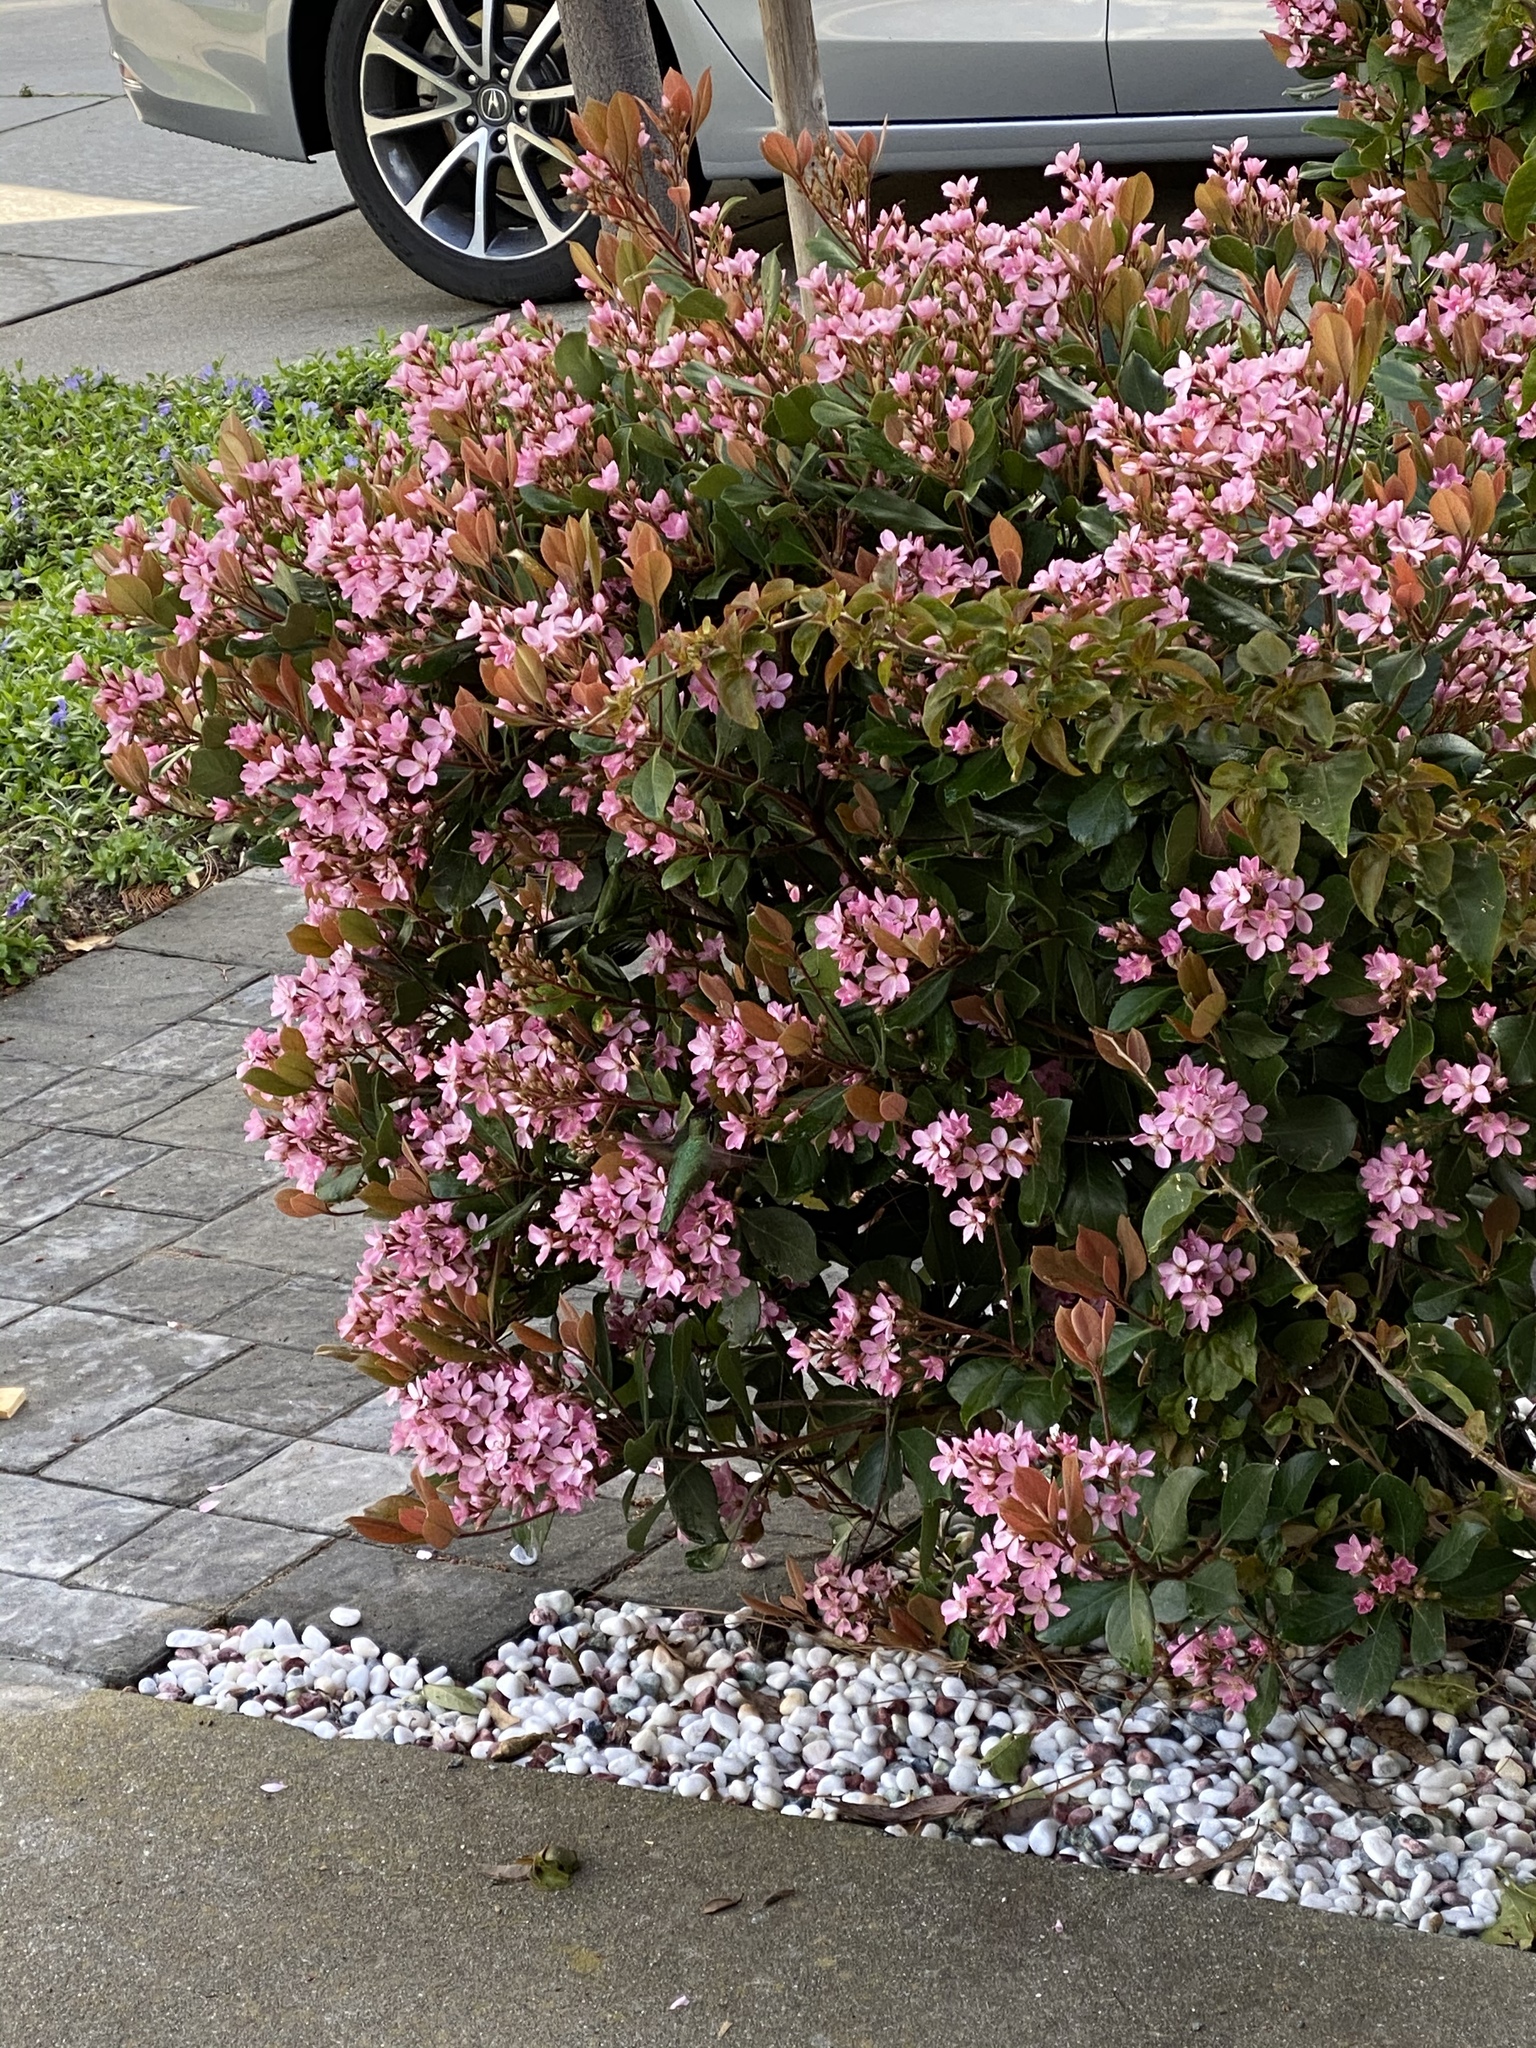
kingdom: Animalia
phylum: Chordata
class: Aves
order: Apodiformes
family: Trochilidae
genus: Calypte
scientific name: Calypte anna
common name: Anna's hummingbird
